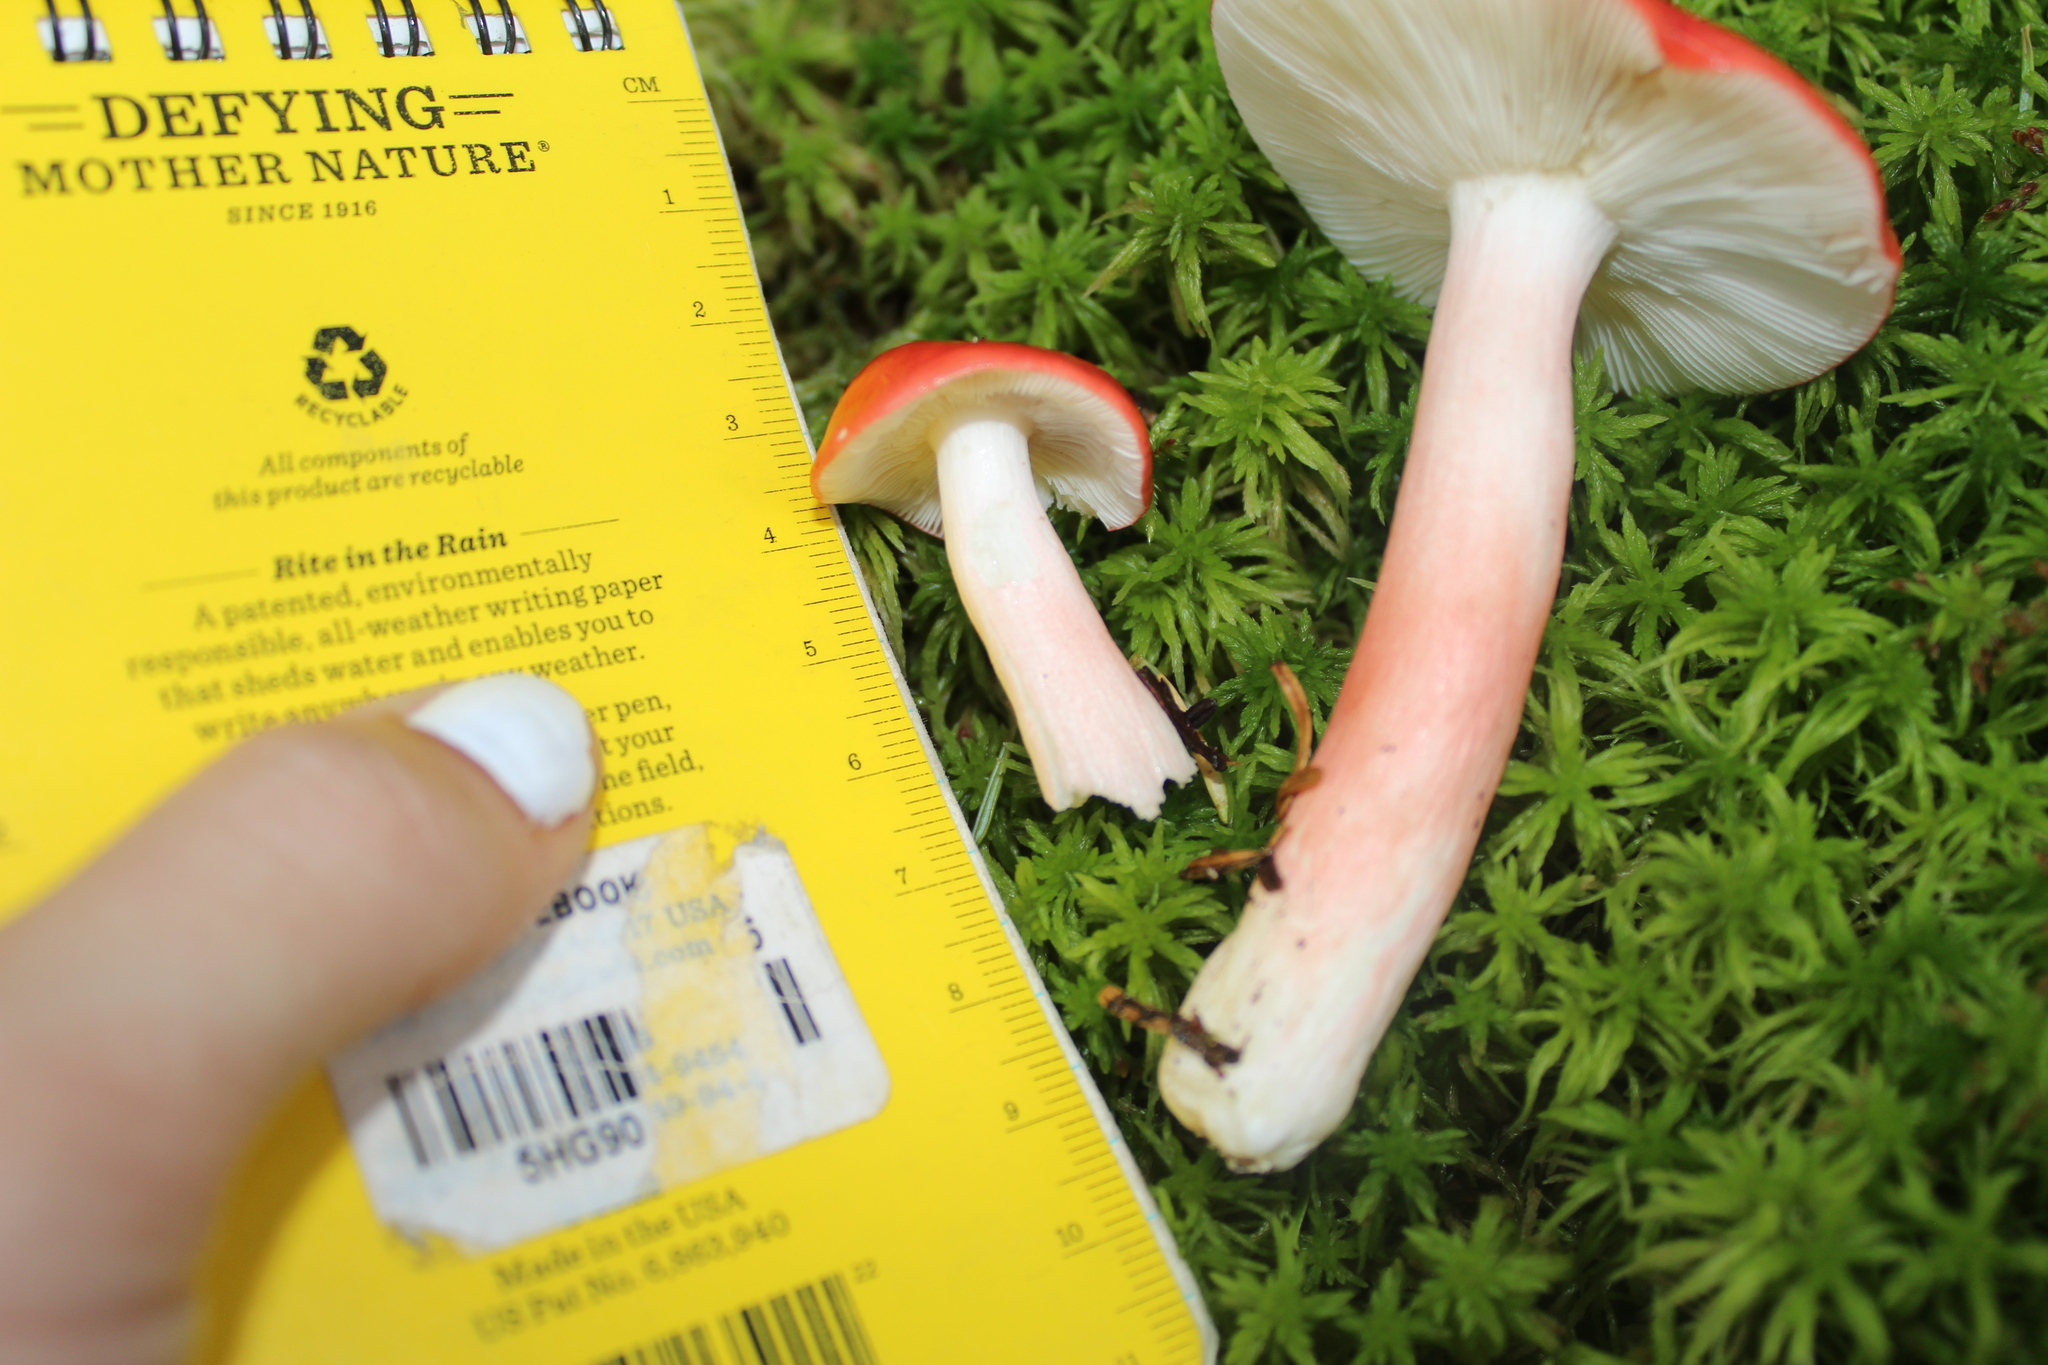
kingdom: Fungi
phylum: Basidiomycota
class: Agaricomycetes
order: Russulales
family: Russulaceae
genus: Russula
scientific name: Russula peckii
